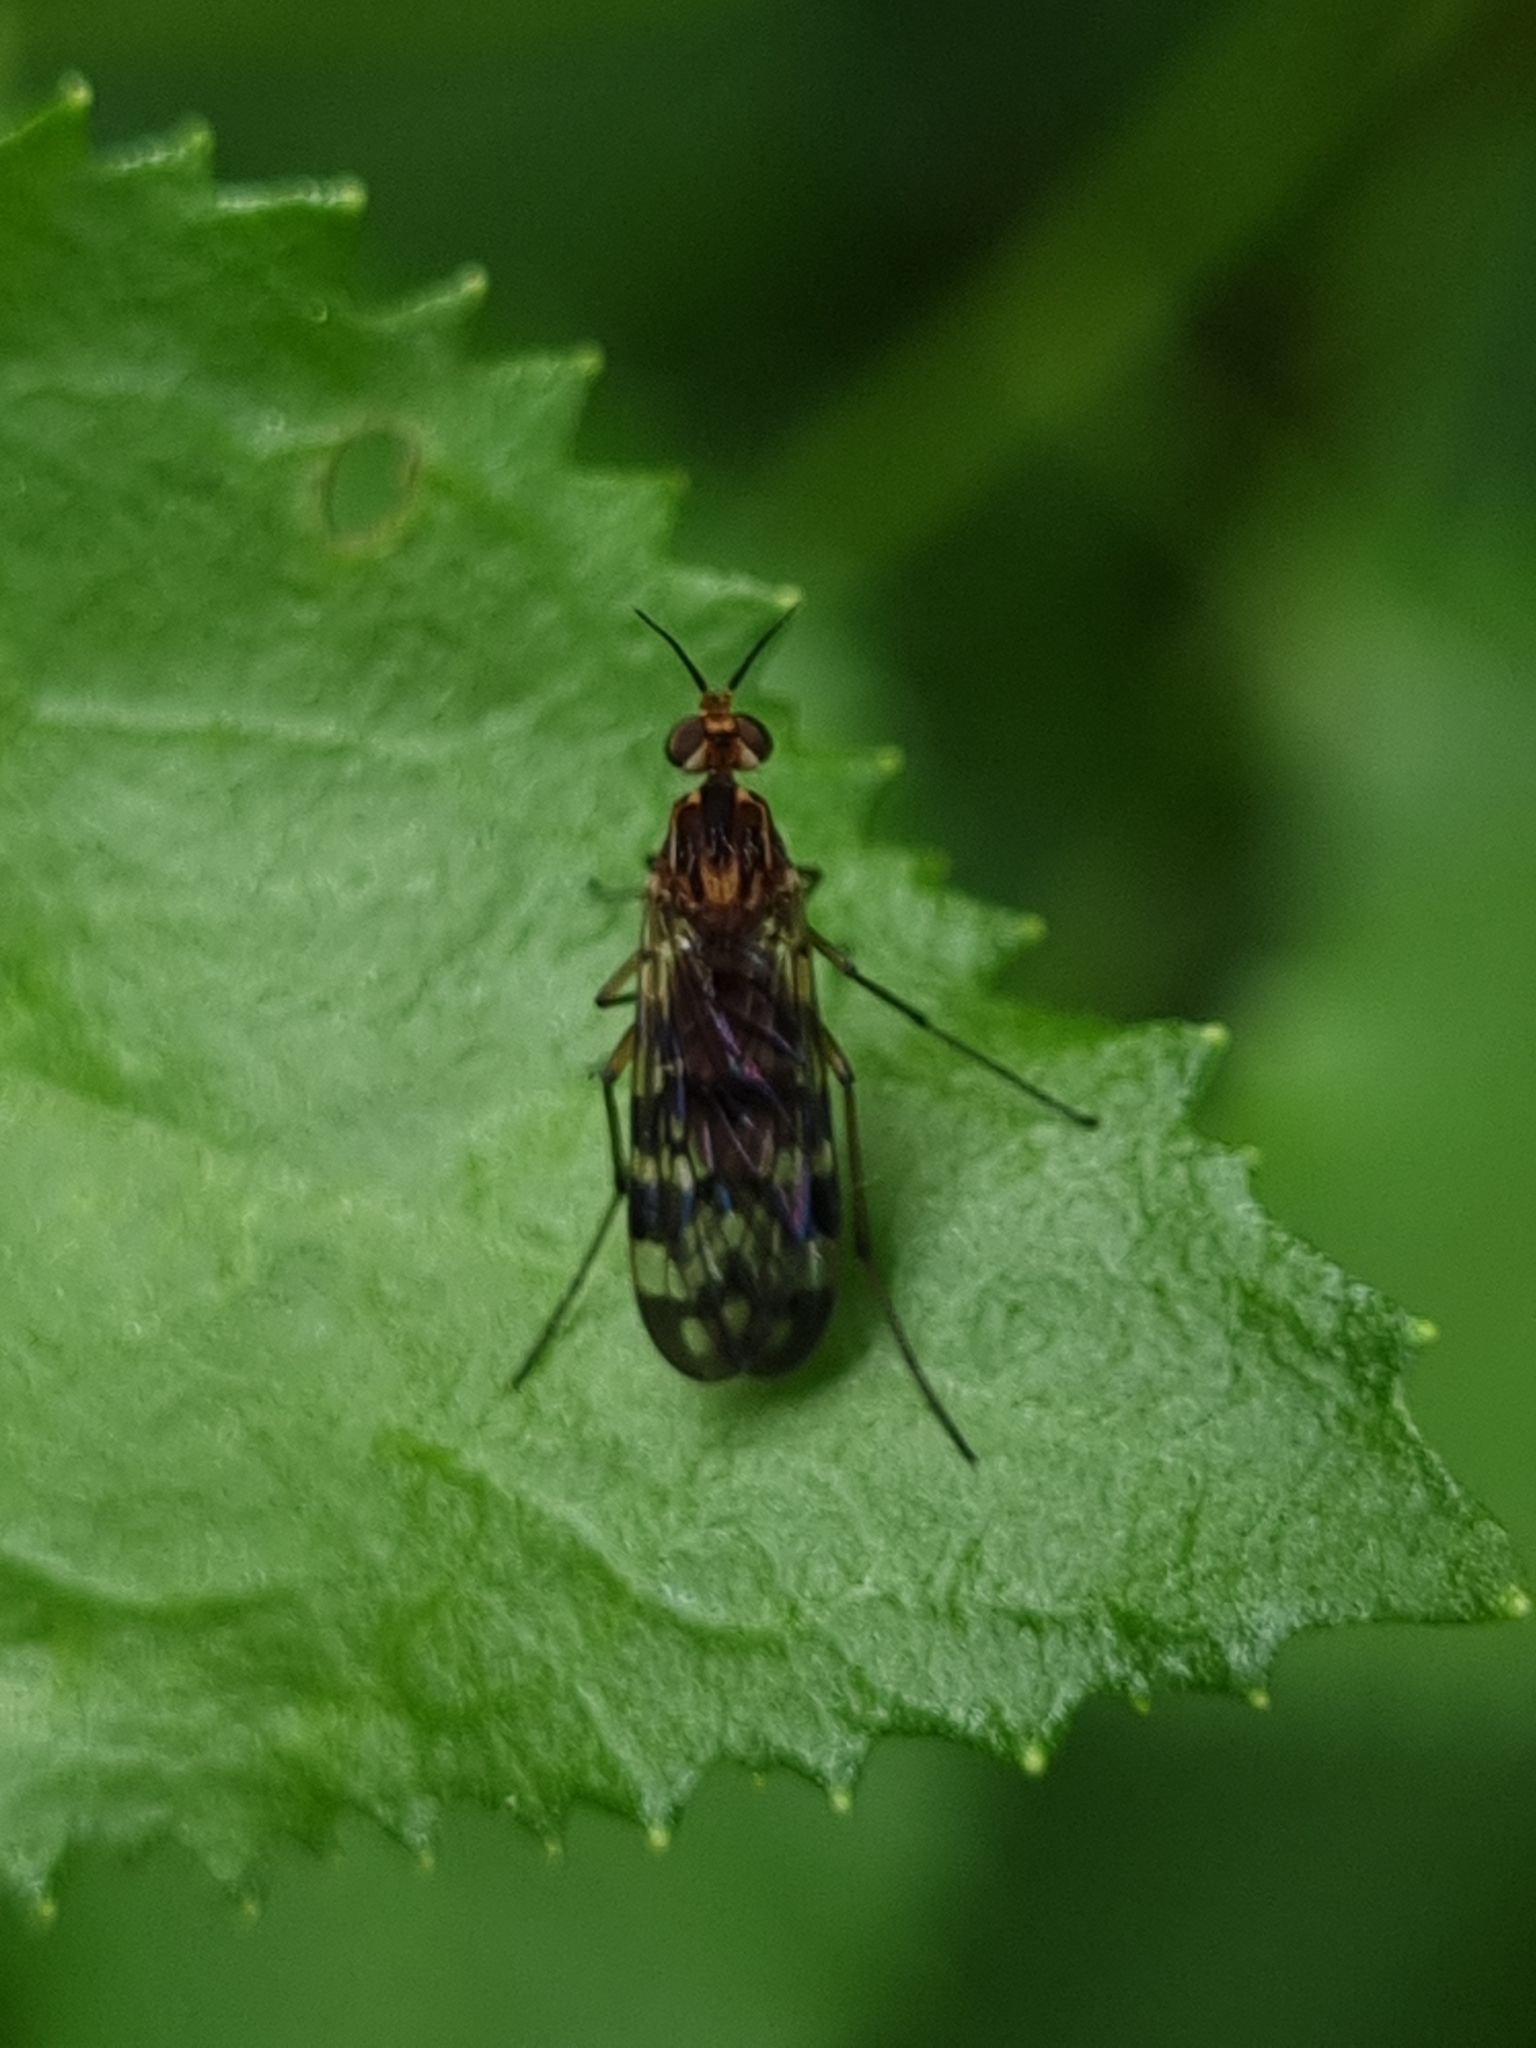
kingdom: Animalia
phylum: Arthropoda
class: Insecta
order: Diptera
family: Anisopodidae
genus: Sylvicola
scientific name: Sylvicola dubius
